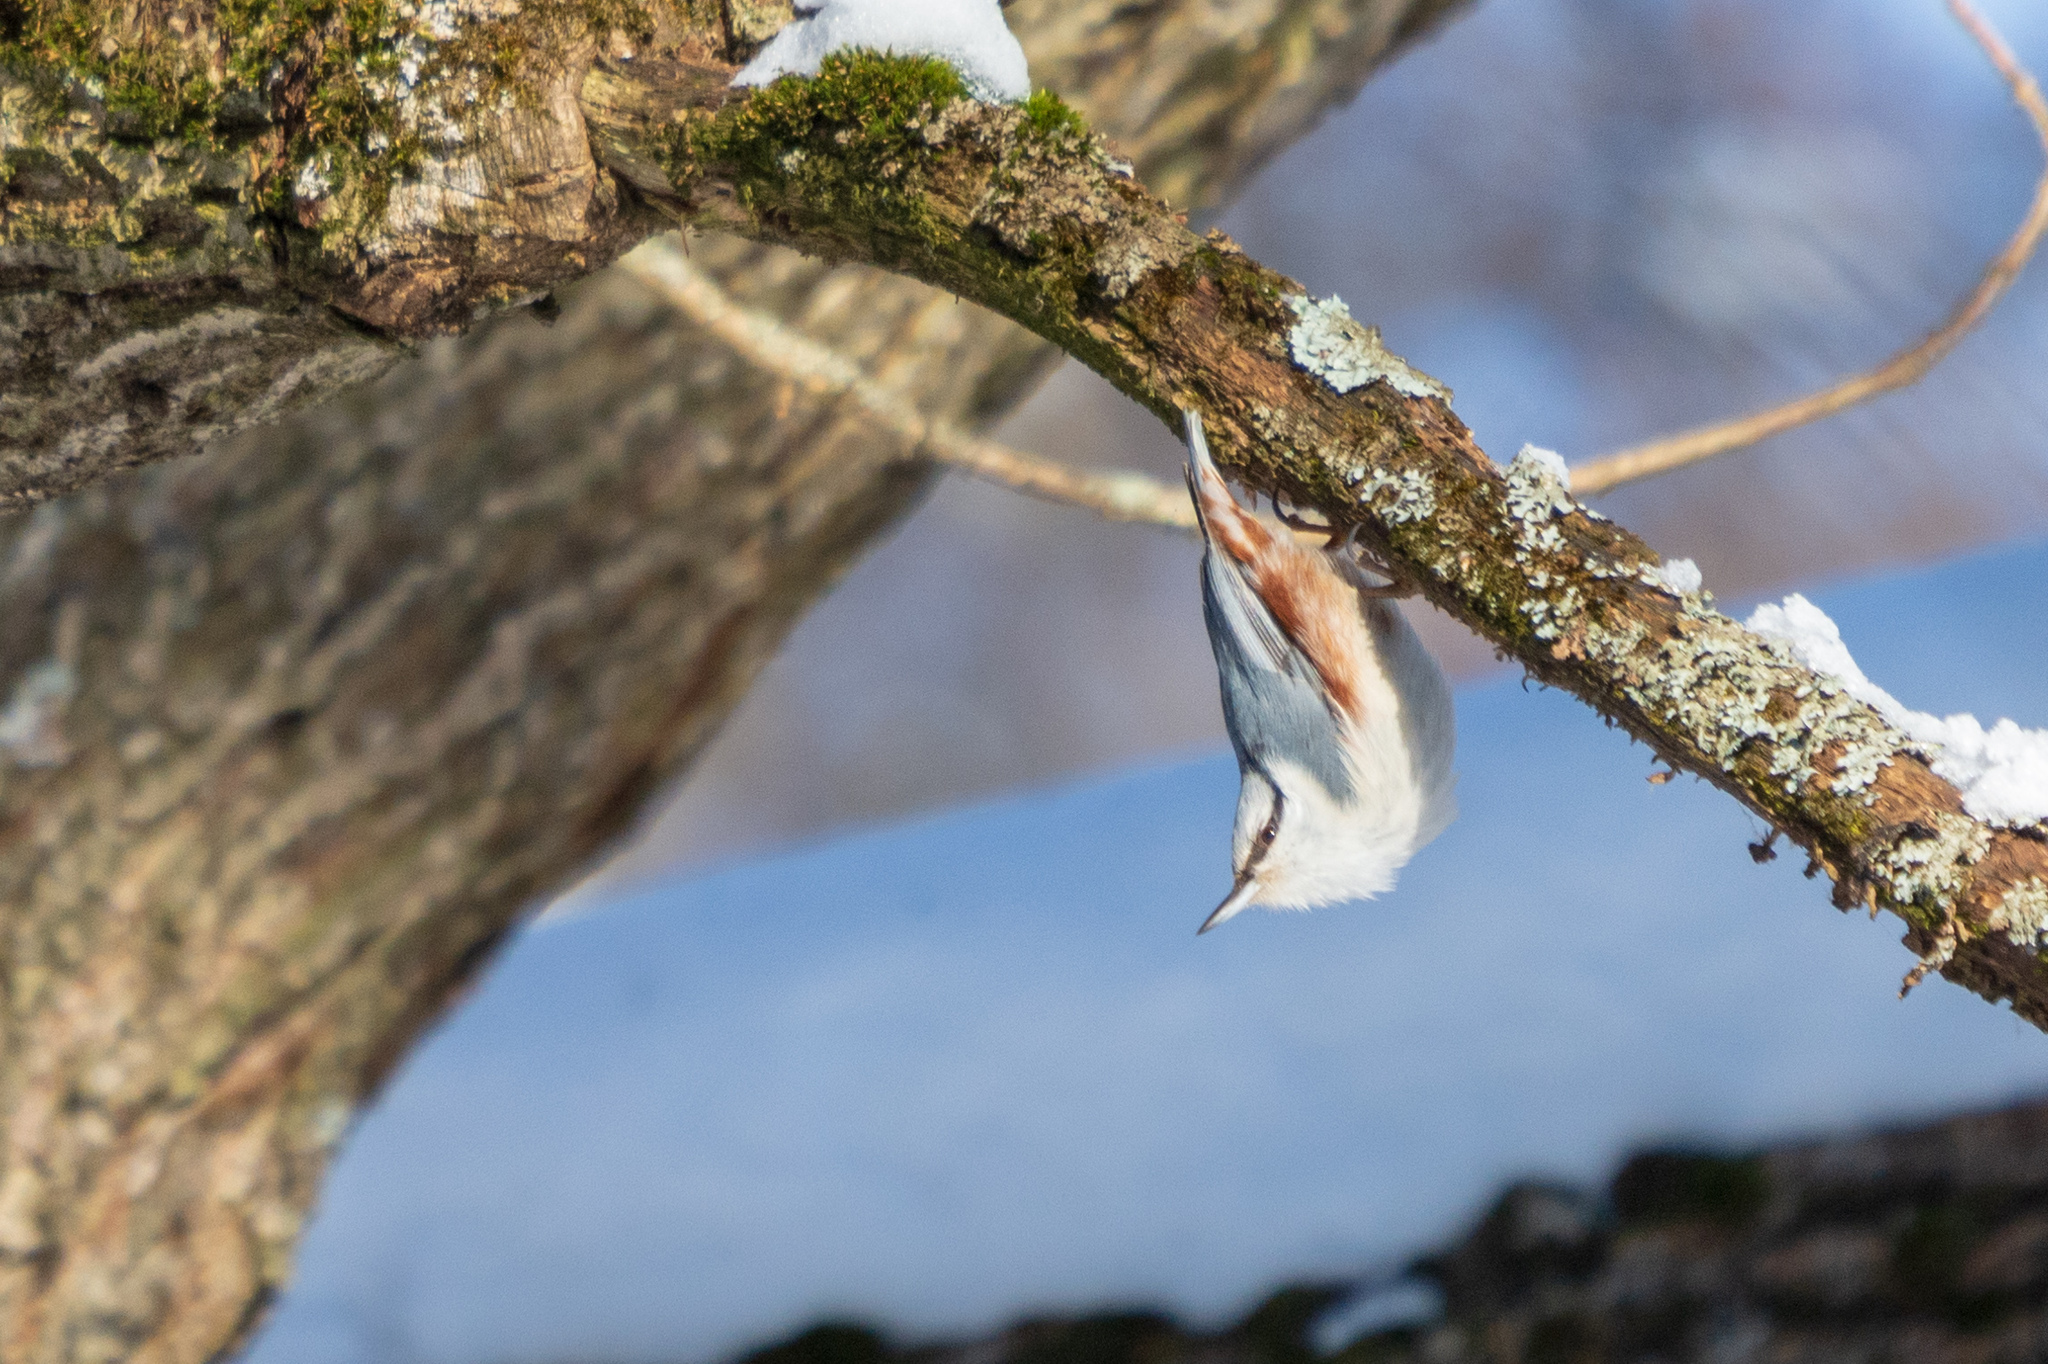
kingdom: Animalia
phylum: Chordata
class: Aves
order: Passeriformes
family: Sittidae
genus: Sitta
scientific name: Sitta europaea
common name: Eurasian nuthatch
